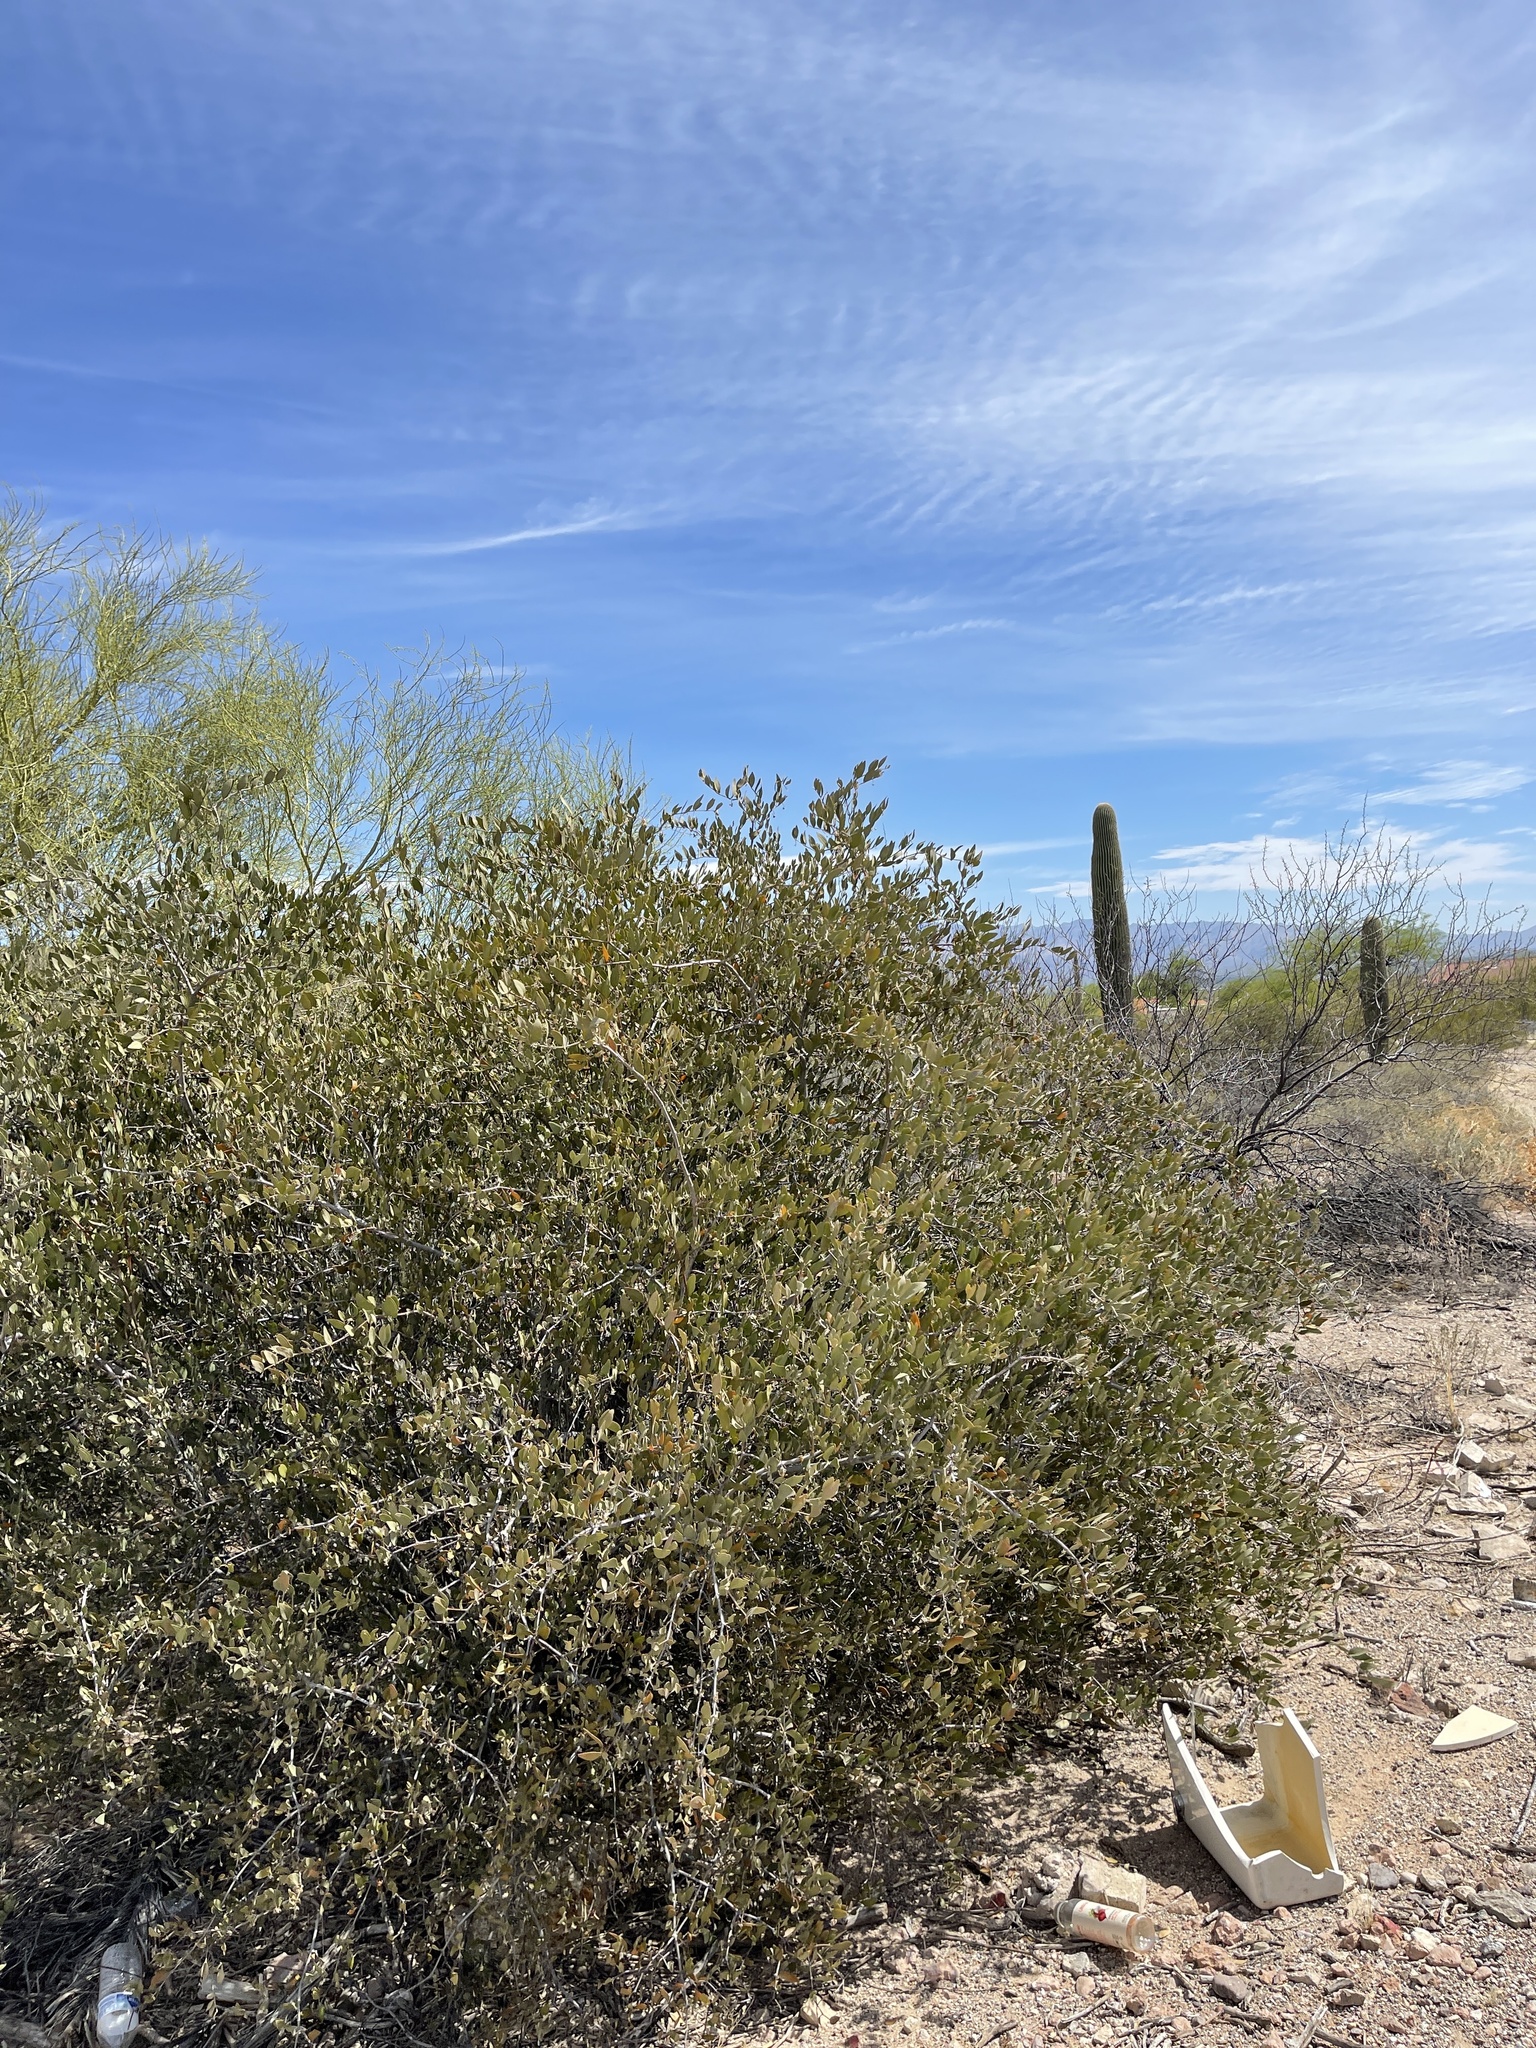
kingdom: Plantae
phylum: Tracheophyta
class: Magnoliopsida
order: Caryophyllales
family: Simmondsiaceae
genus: Simmondsia
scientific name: Simmondsia chinensis
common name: Jojoba
